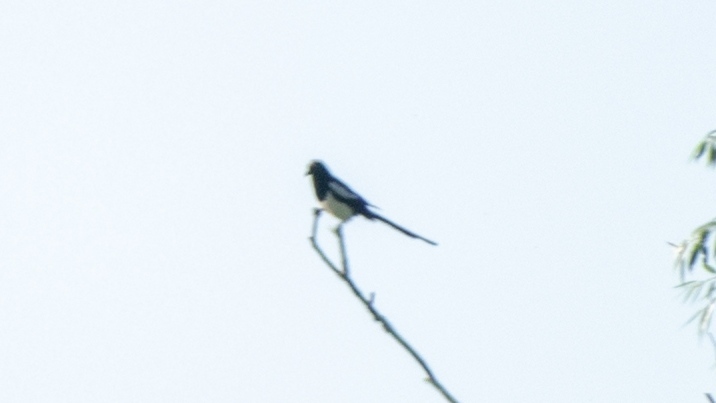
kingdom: Animalia
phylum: Chordata
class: Aves
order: Passeriformes
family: Corvidae
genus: Pica
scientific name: Pica pica
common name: Eurasian magpie
